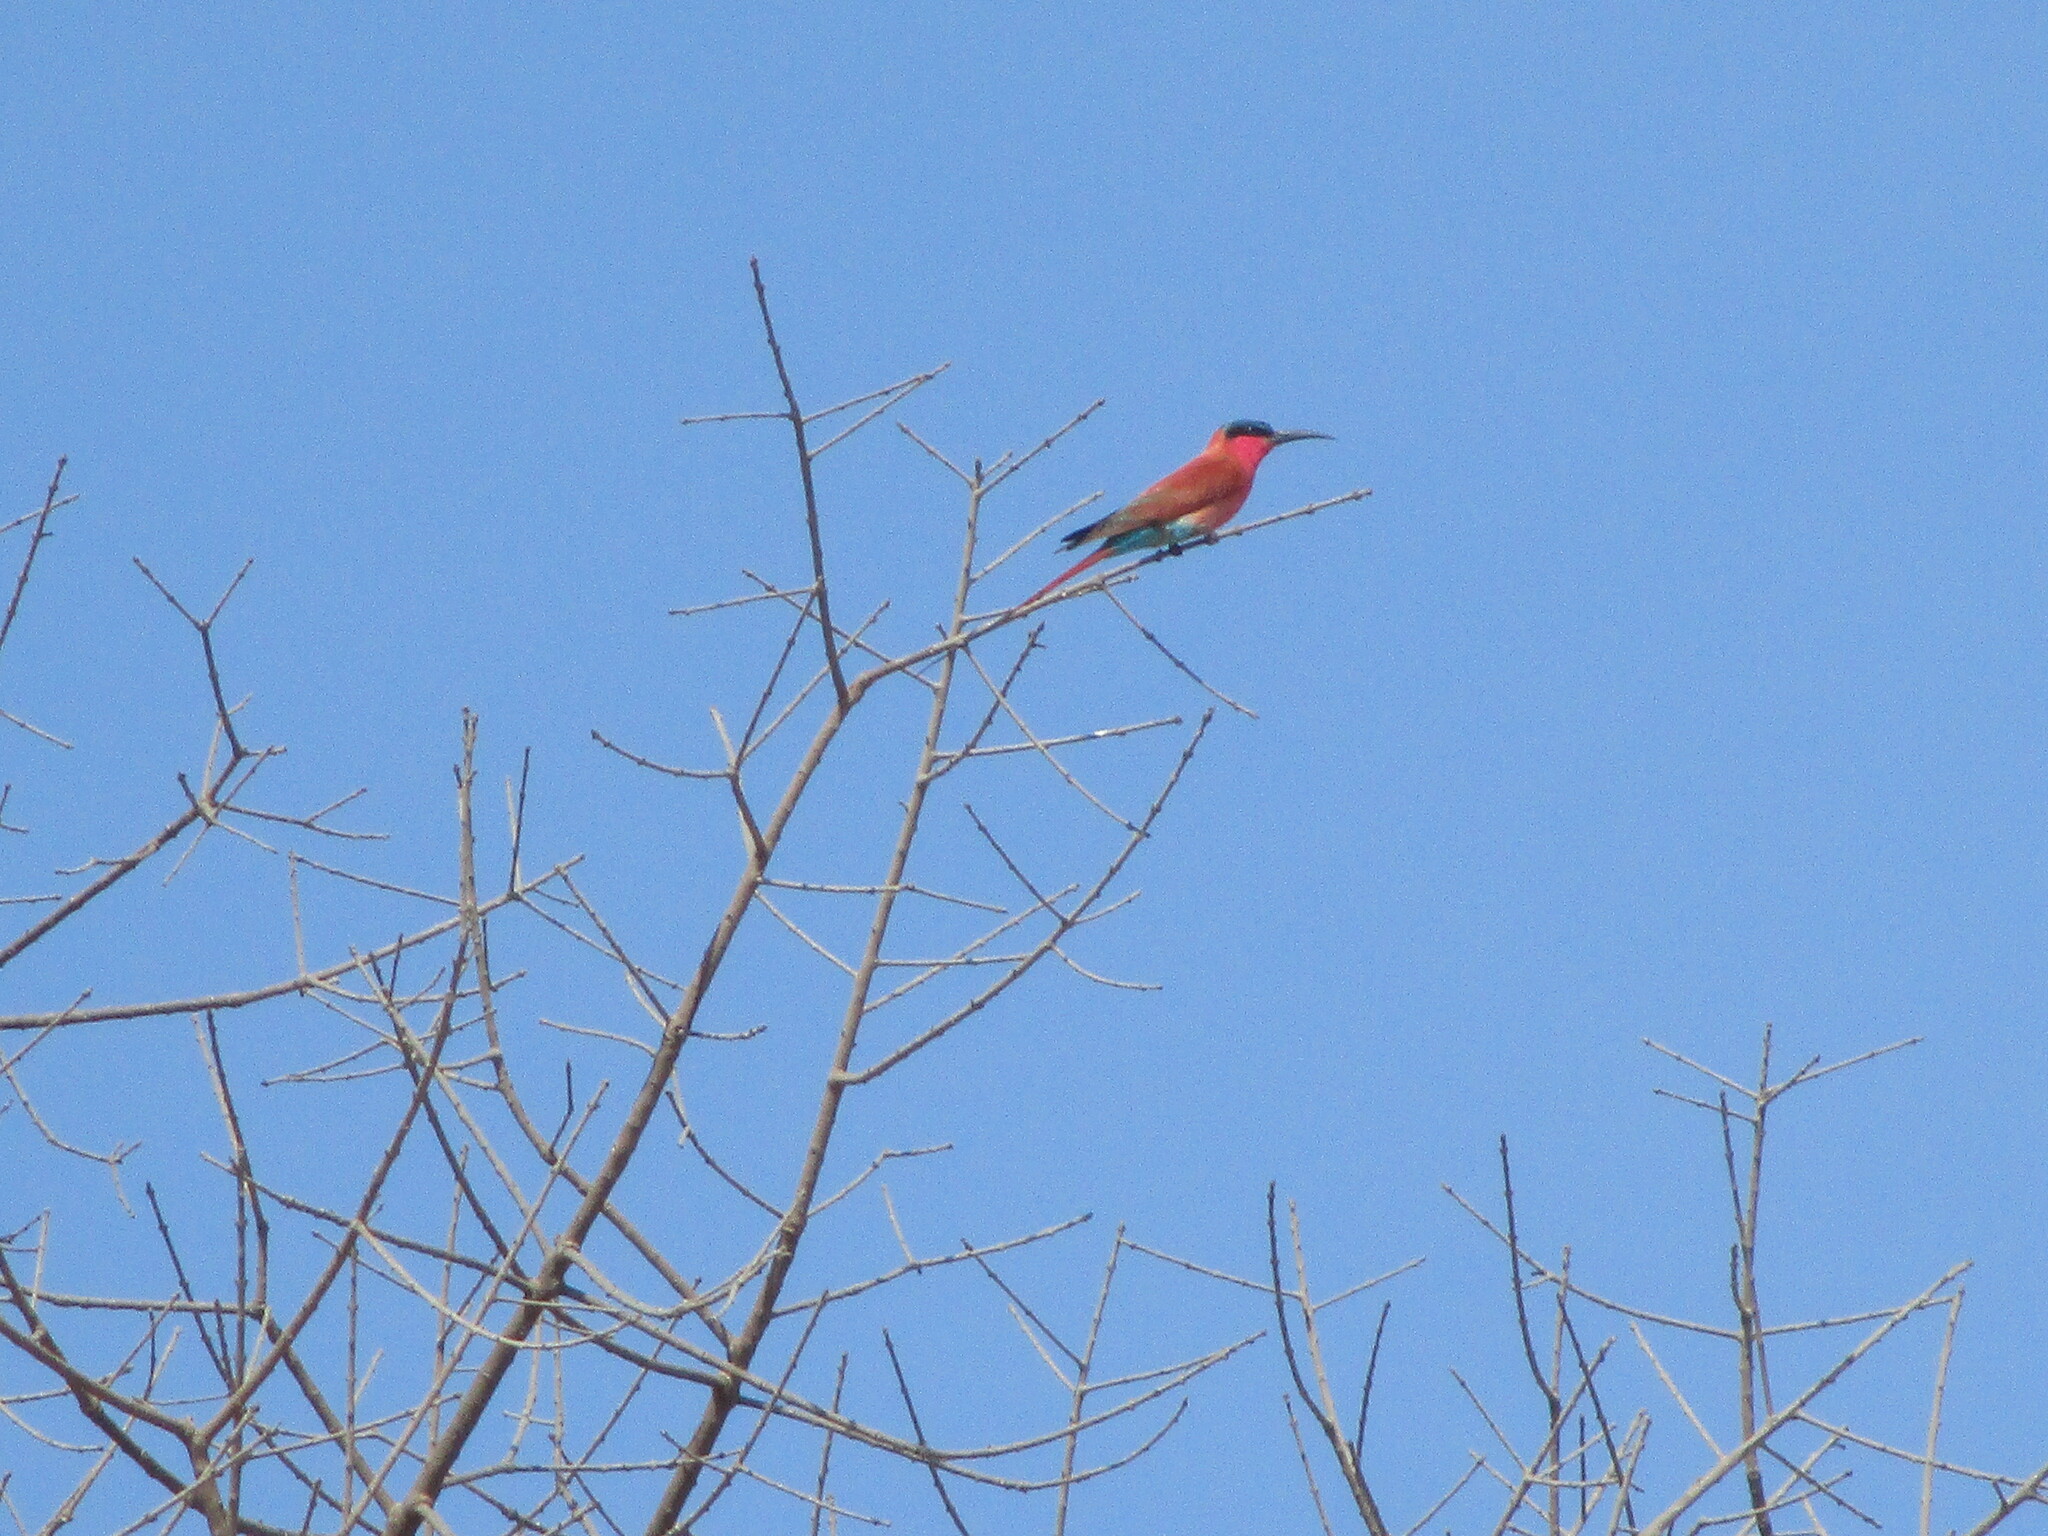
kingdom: Animalia
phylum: Chordata
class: Aves
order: Coraciiformes
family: Meropidae
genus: Merops
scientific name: Merops nubicoides
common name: Southern carmine bee-eater
